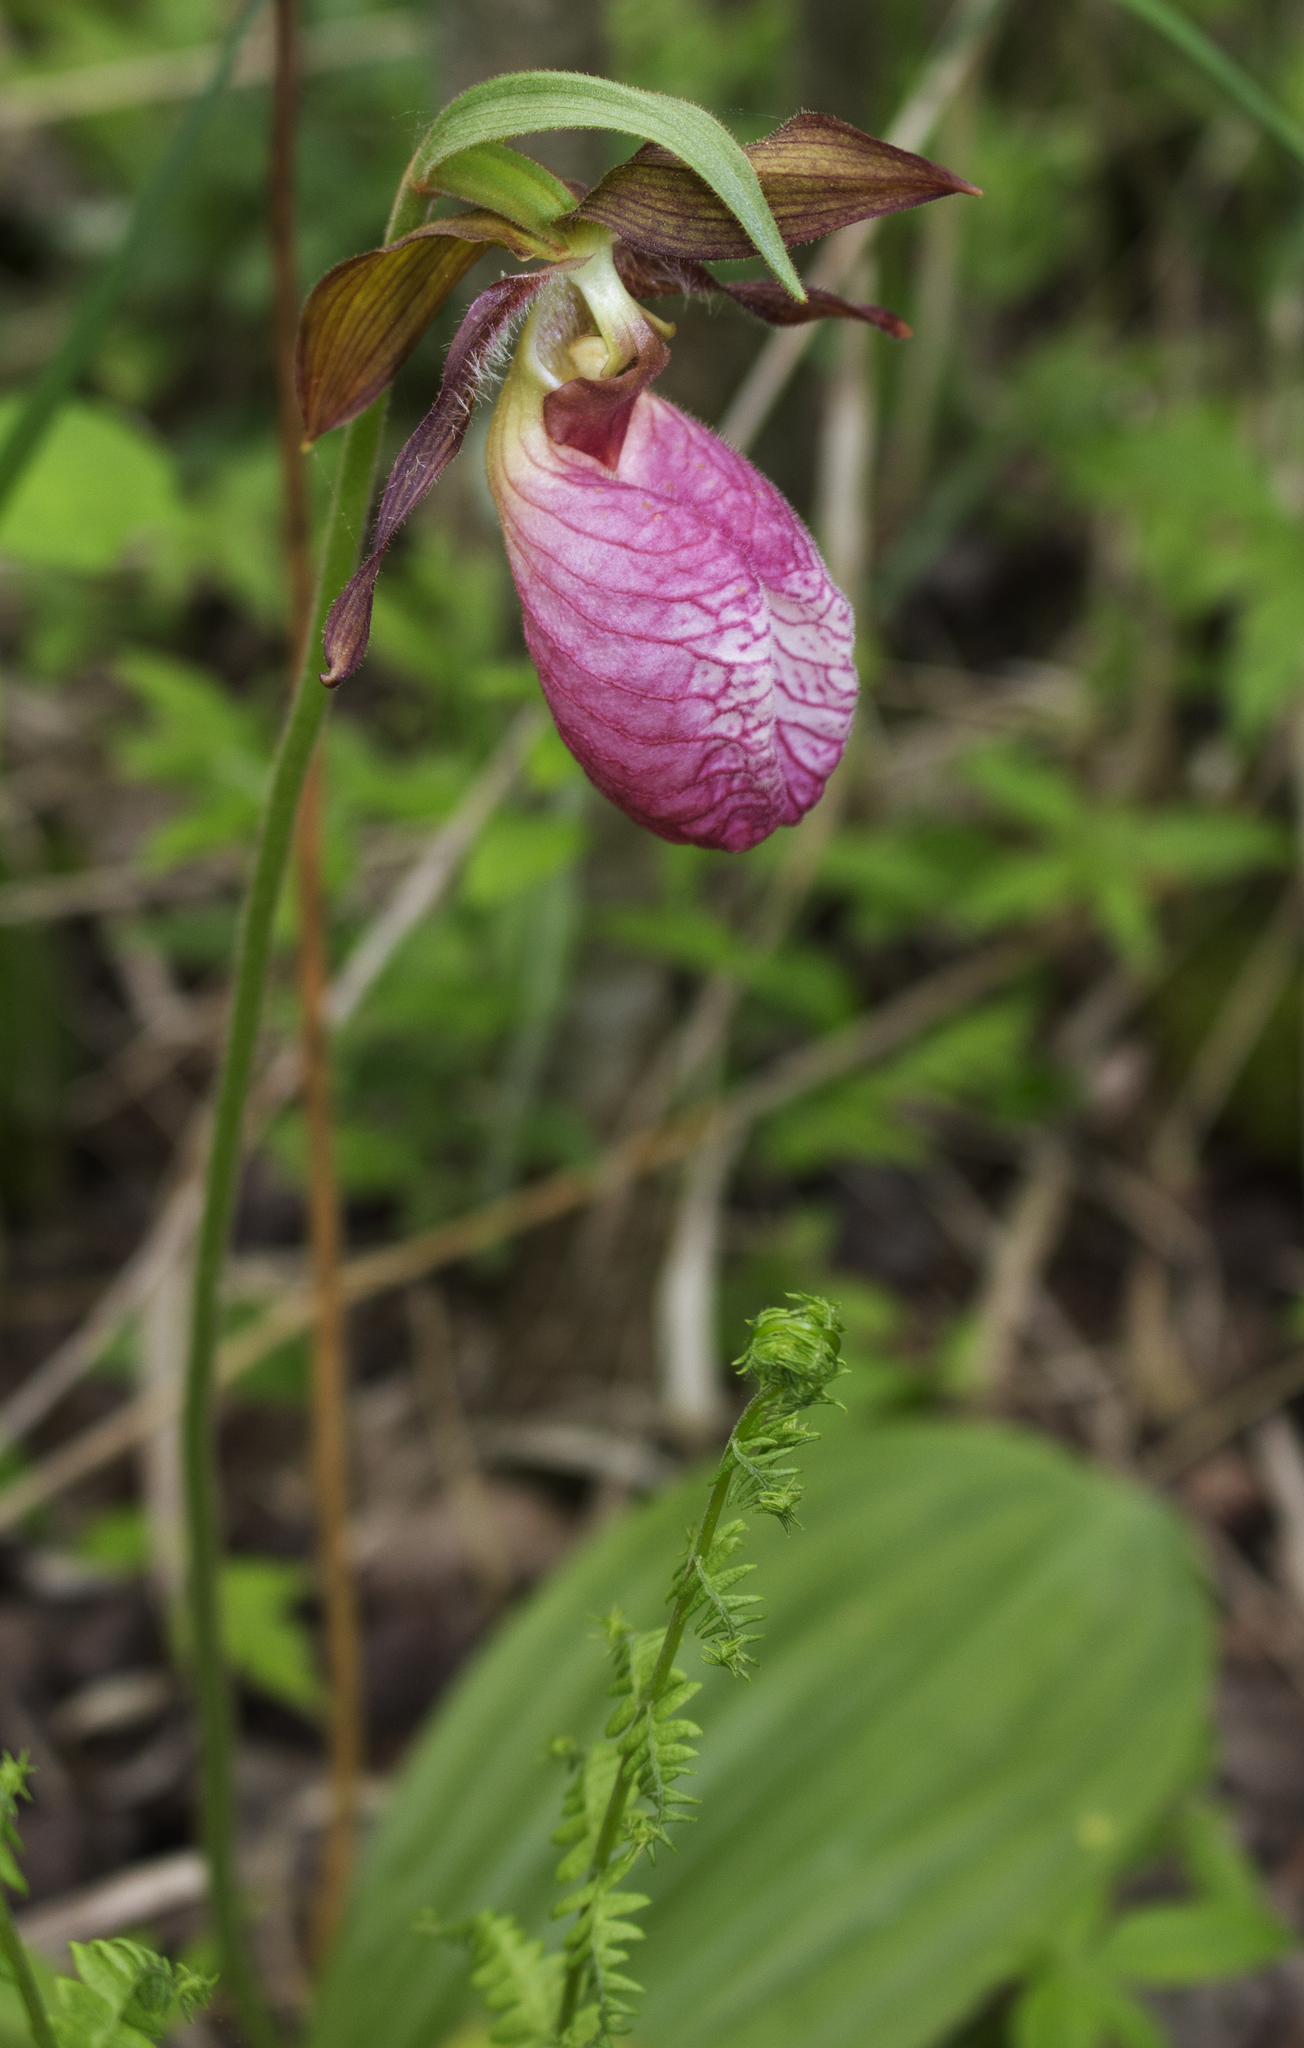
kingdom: Plantae
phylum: Tracheophyta
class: Liliopsida
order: Asparagales
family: Orchidaceae
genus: Cypripedium
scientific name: Cypripedium acaule
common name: Pink lady's-slipper
